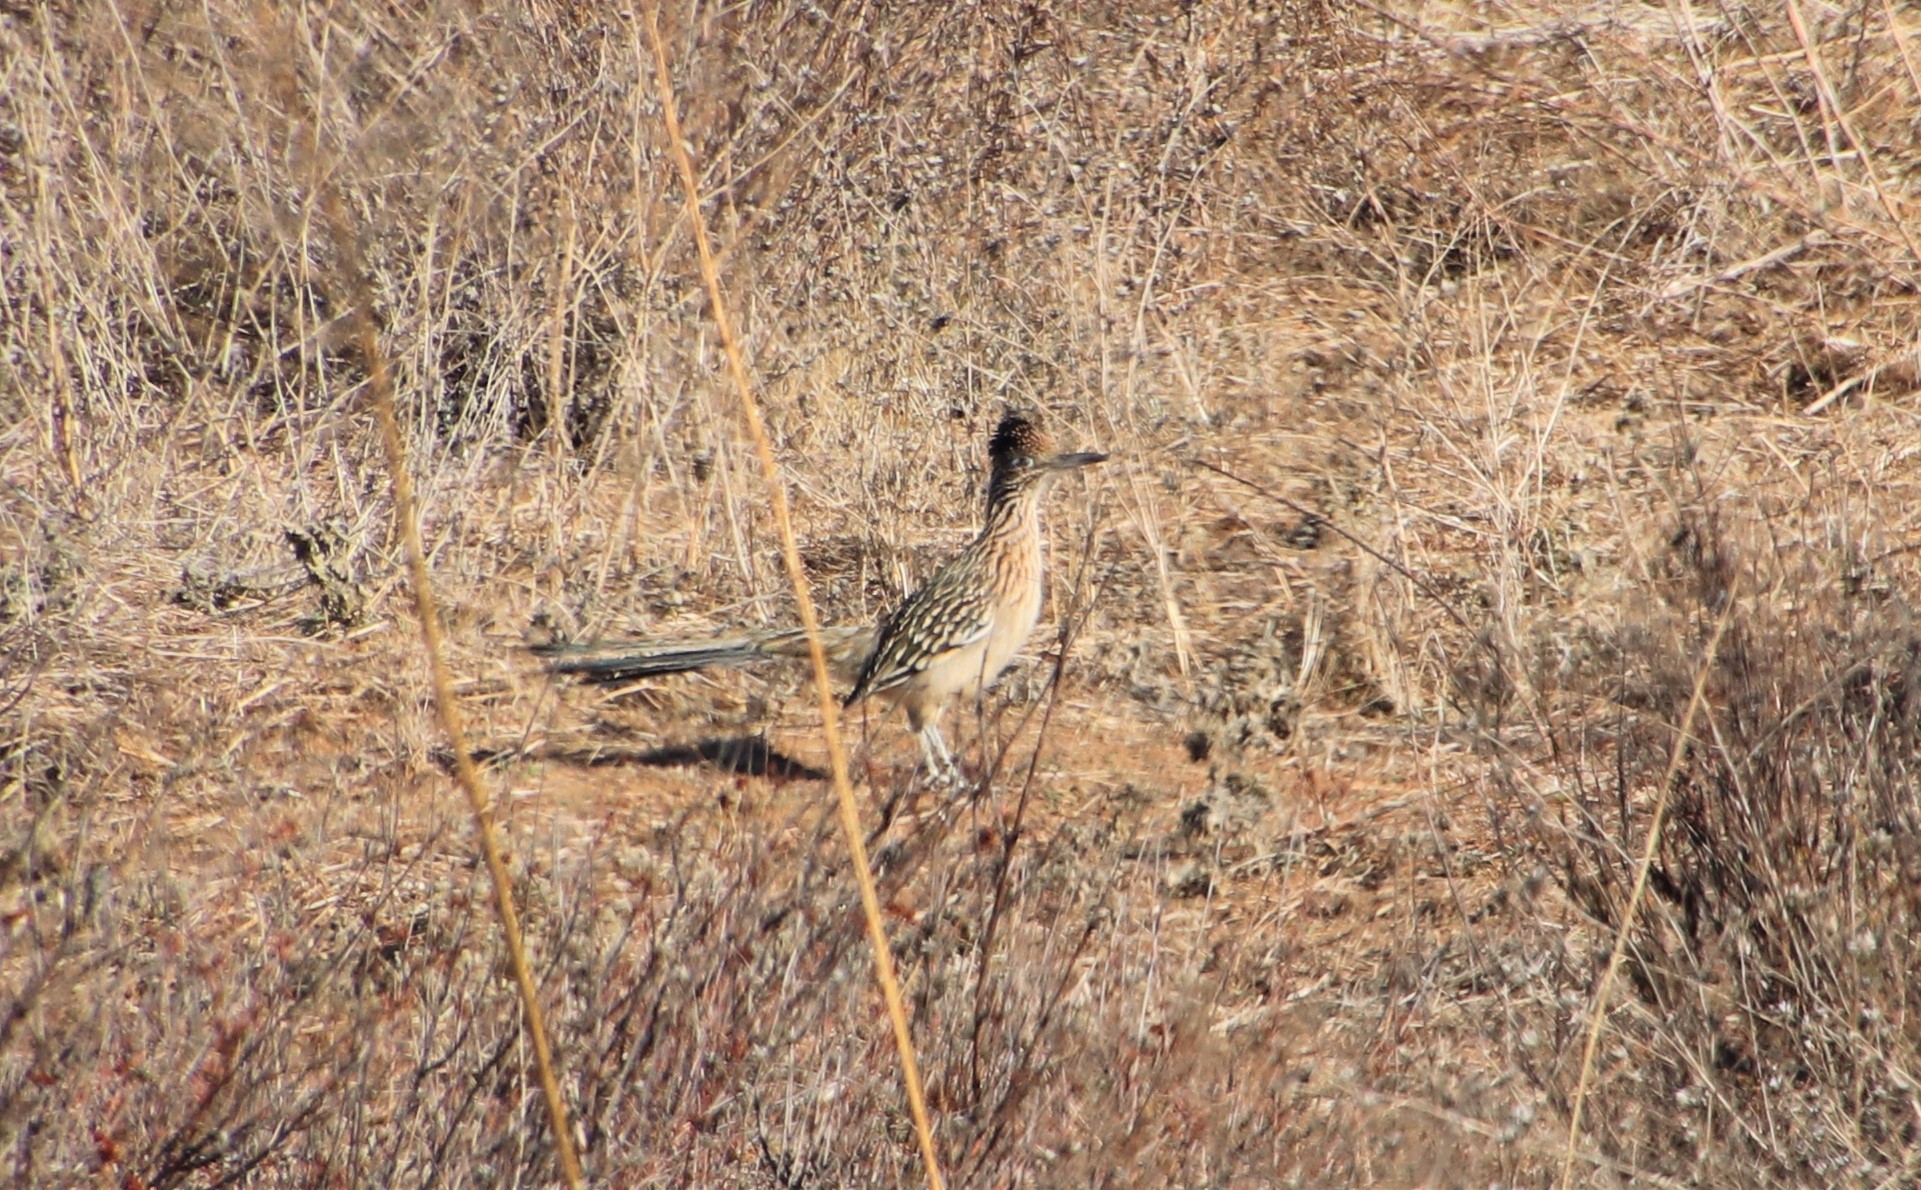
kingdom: Animalia
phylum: Chordata
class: Aves
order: Cuculiformes
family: Cuculidae
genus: Geococcyx
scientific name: Geococcyx californianus
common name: Greater roadrunner
